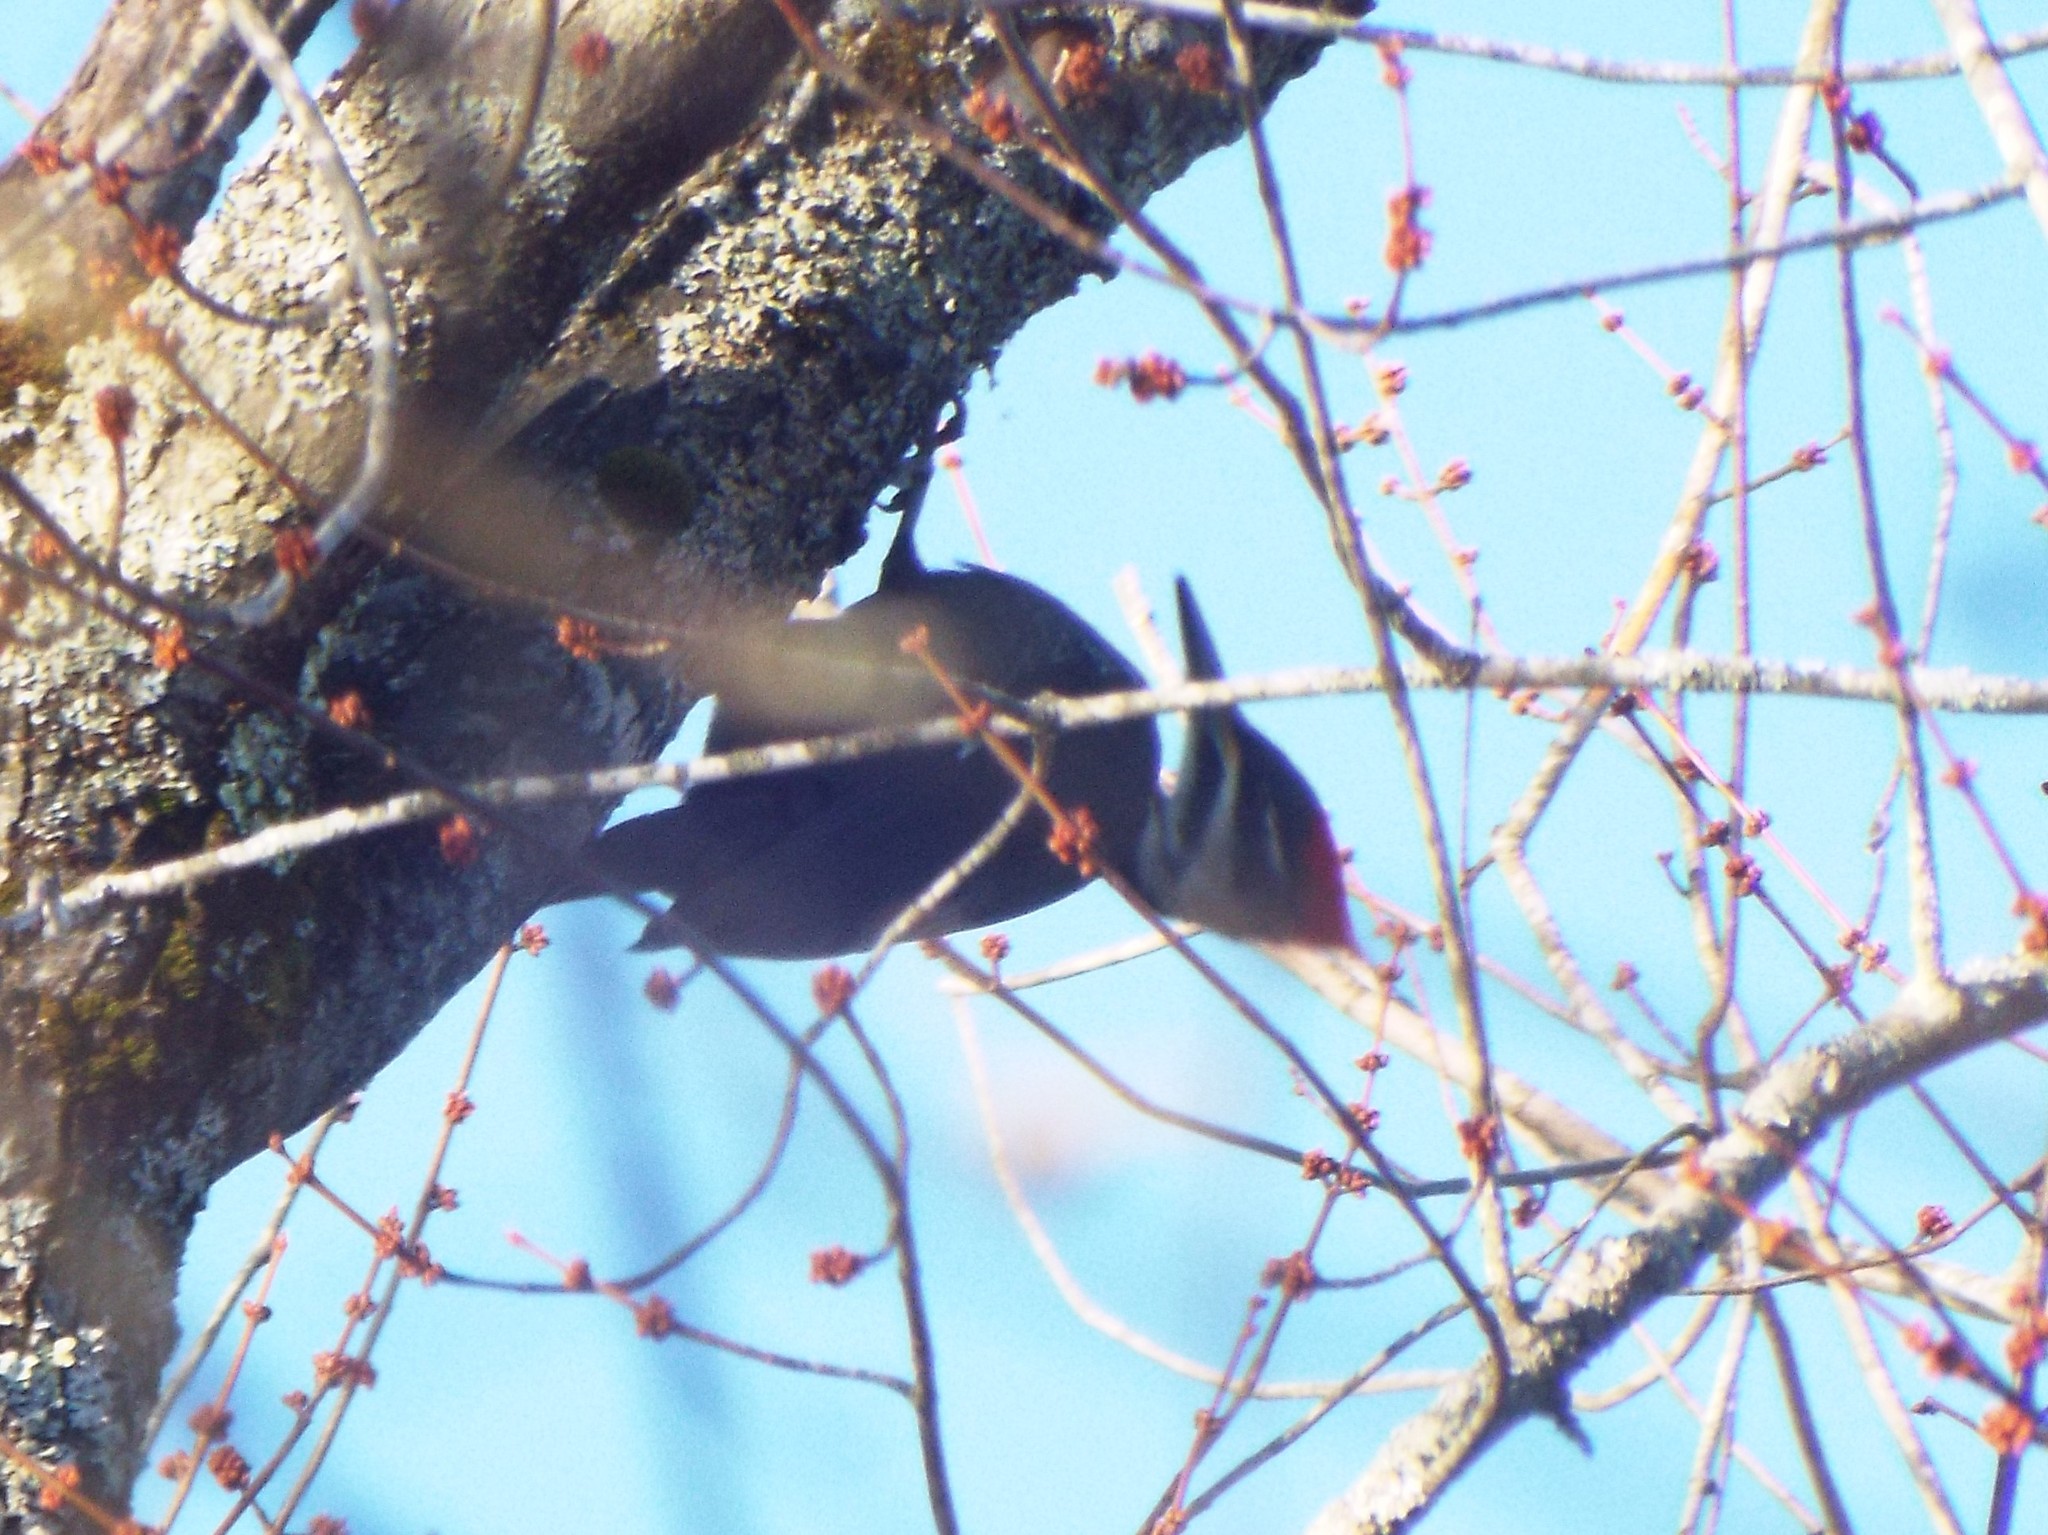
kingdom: Animalia
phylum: Chordata
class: Aves
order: Piciformes
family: Picidae
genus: Dryocopus
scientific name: Dryocopus pileatus
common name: Pileated woodpecker
